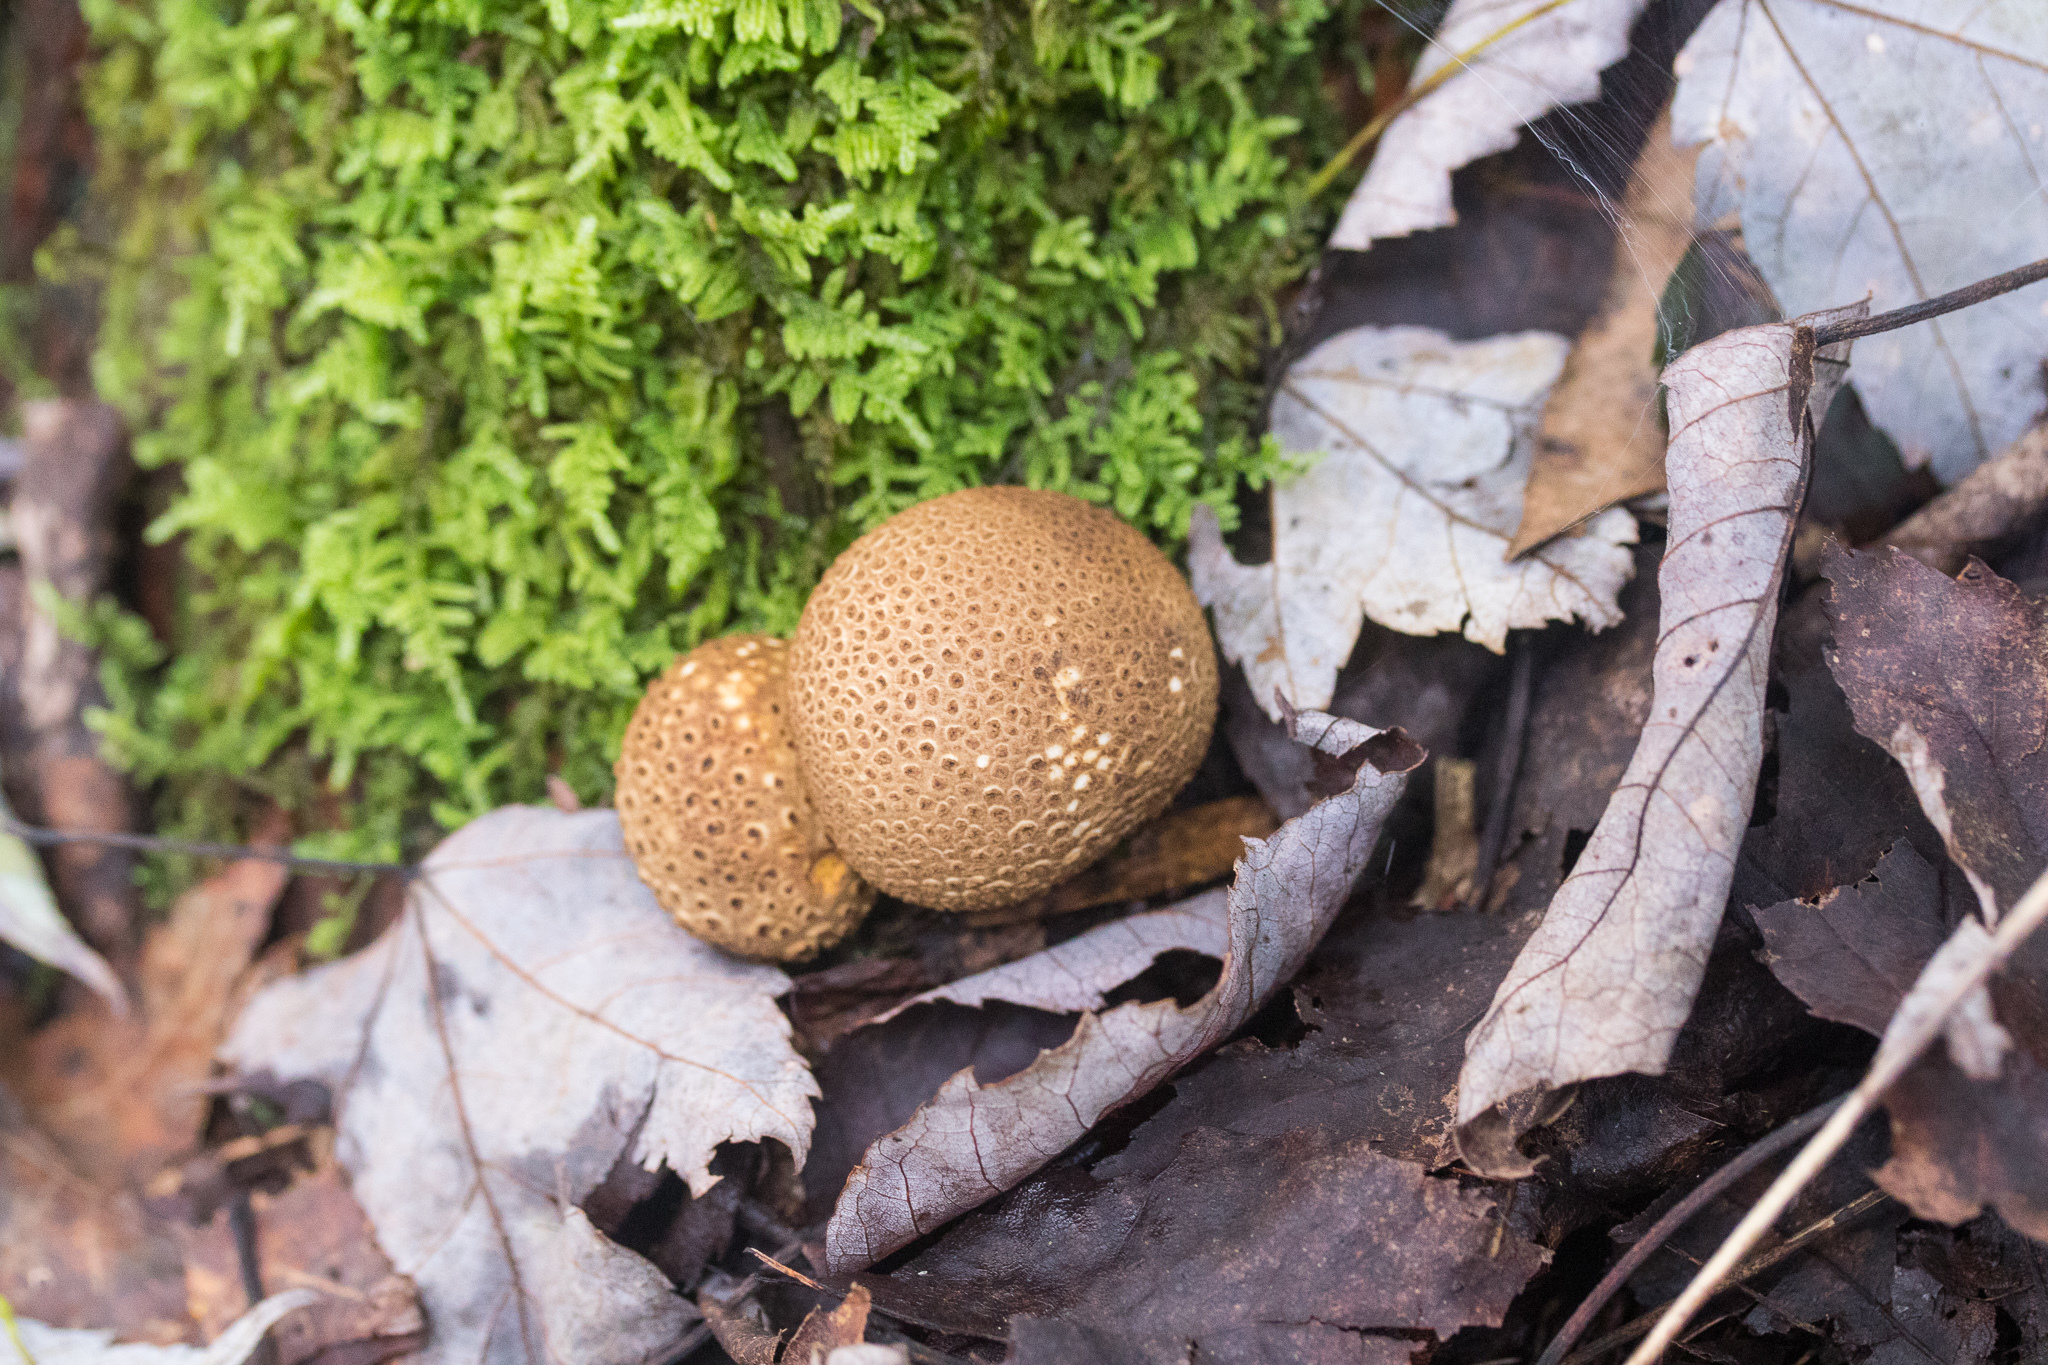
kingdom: Fungi
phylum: Basidiomycota
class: Agaricomycetes
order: Boletales
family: Sclerodermataceae
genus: Scleroderma
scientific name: Scleroderma citrinum
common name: Common earthball
